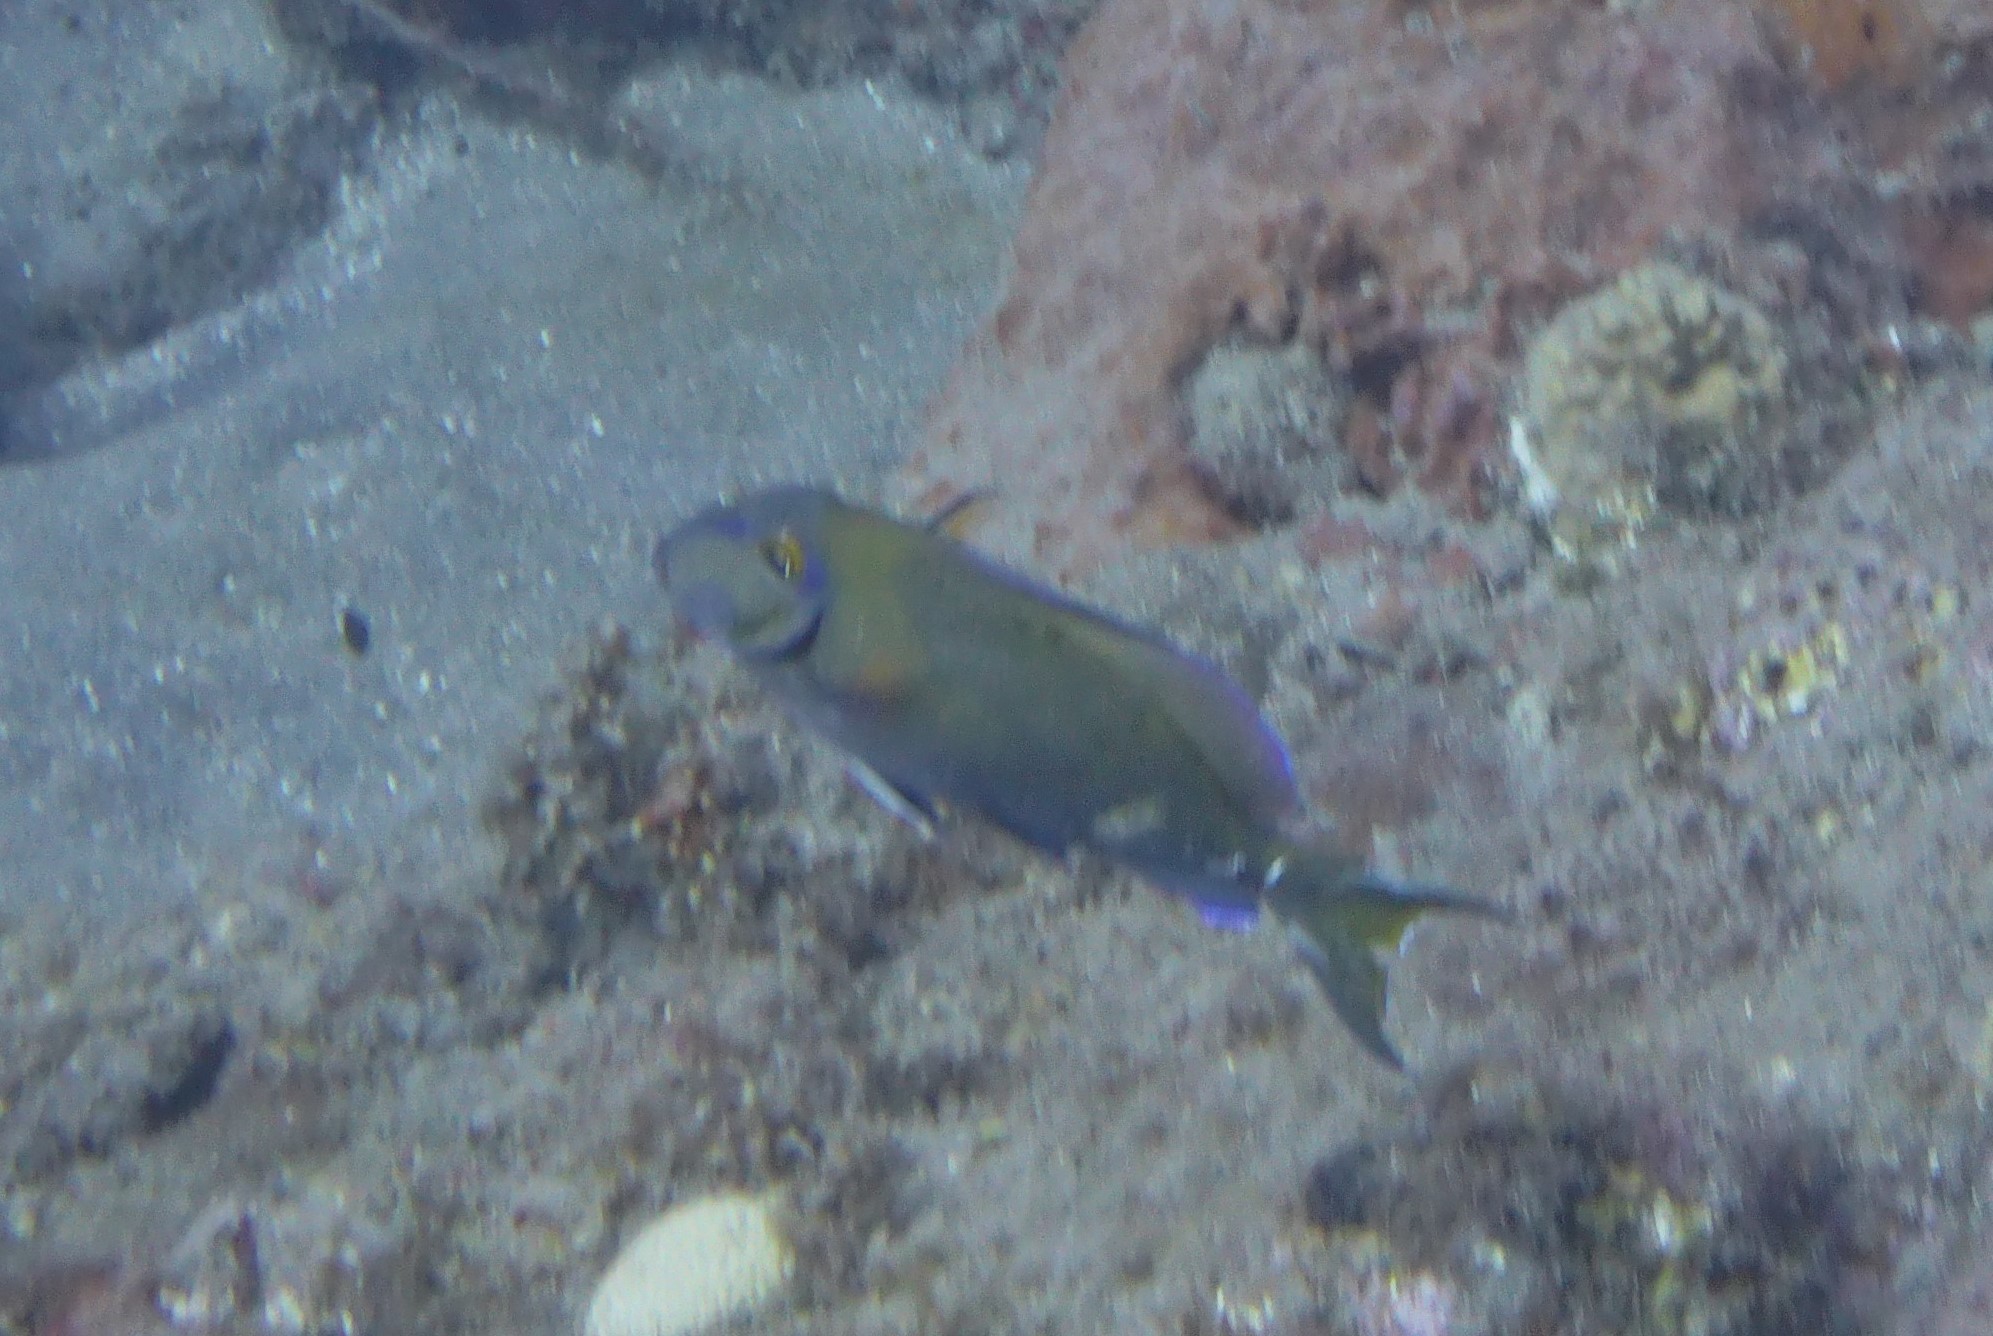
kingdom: Animalia
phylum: Chordata
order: Perciformes
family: Acanthuridae
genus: Acanthurus
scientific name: Acanthurus bahianus
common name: Ocean surgeon
